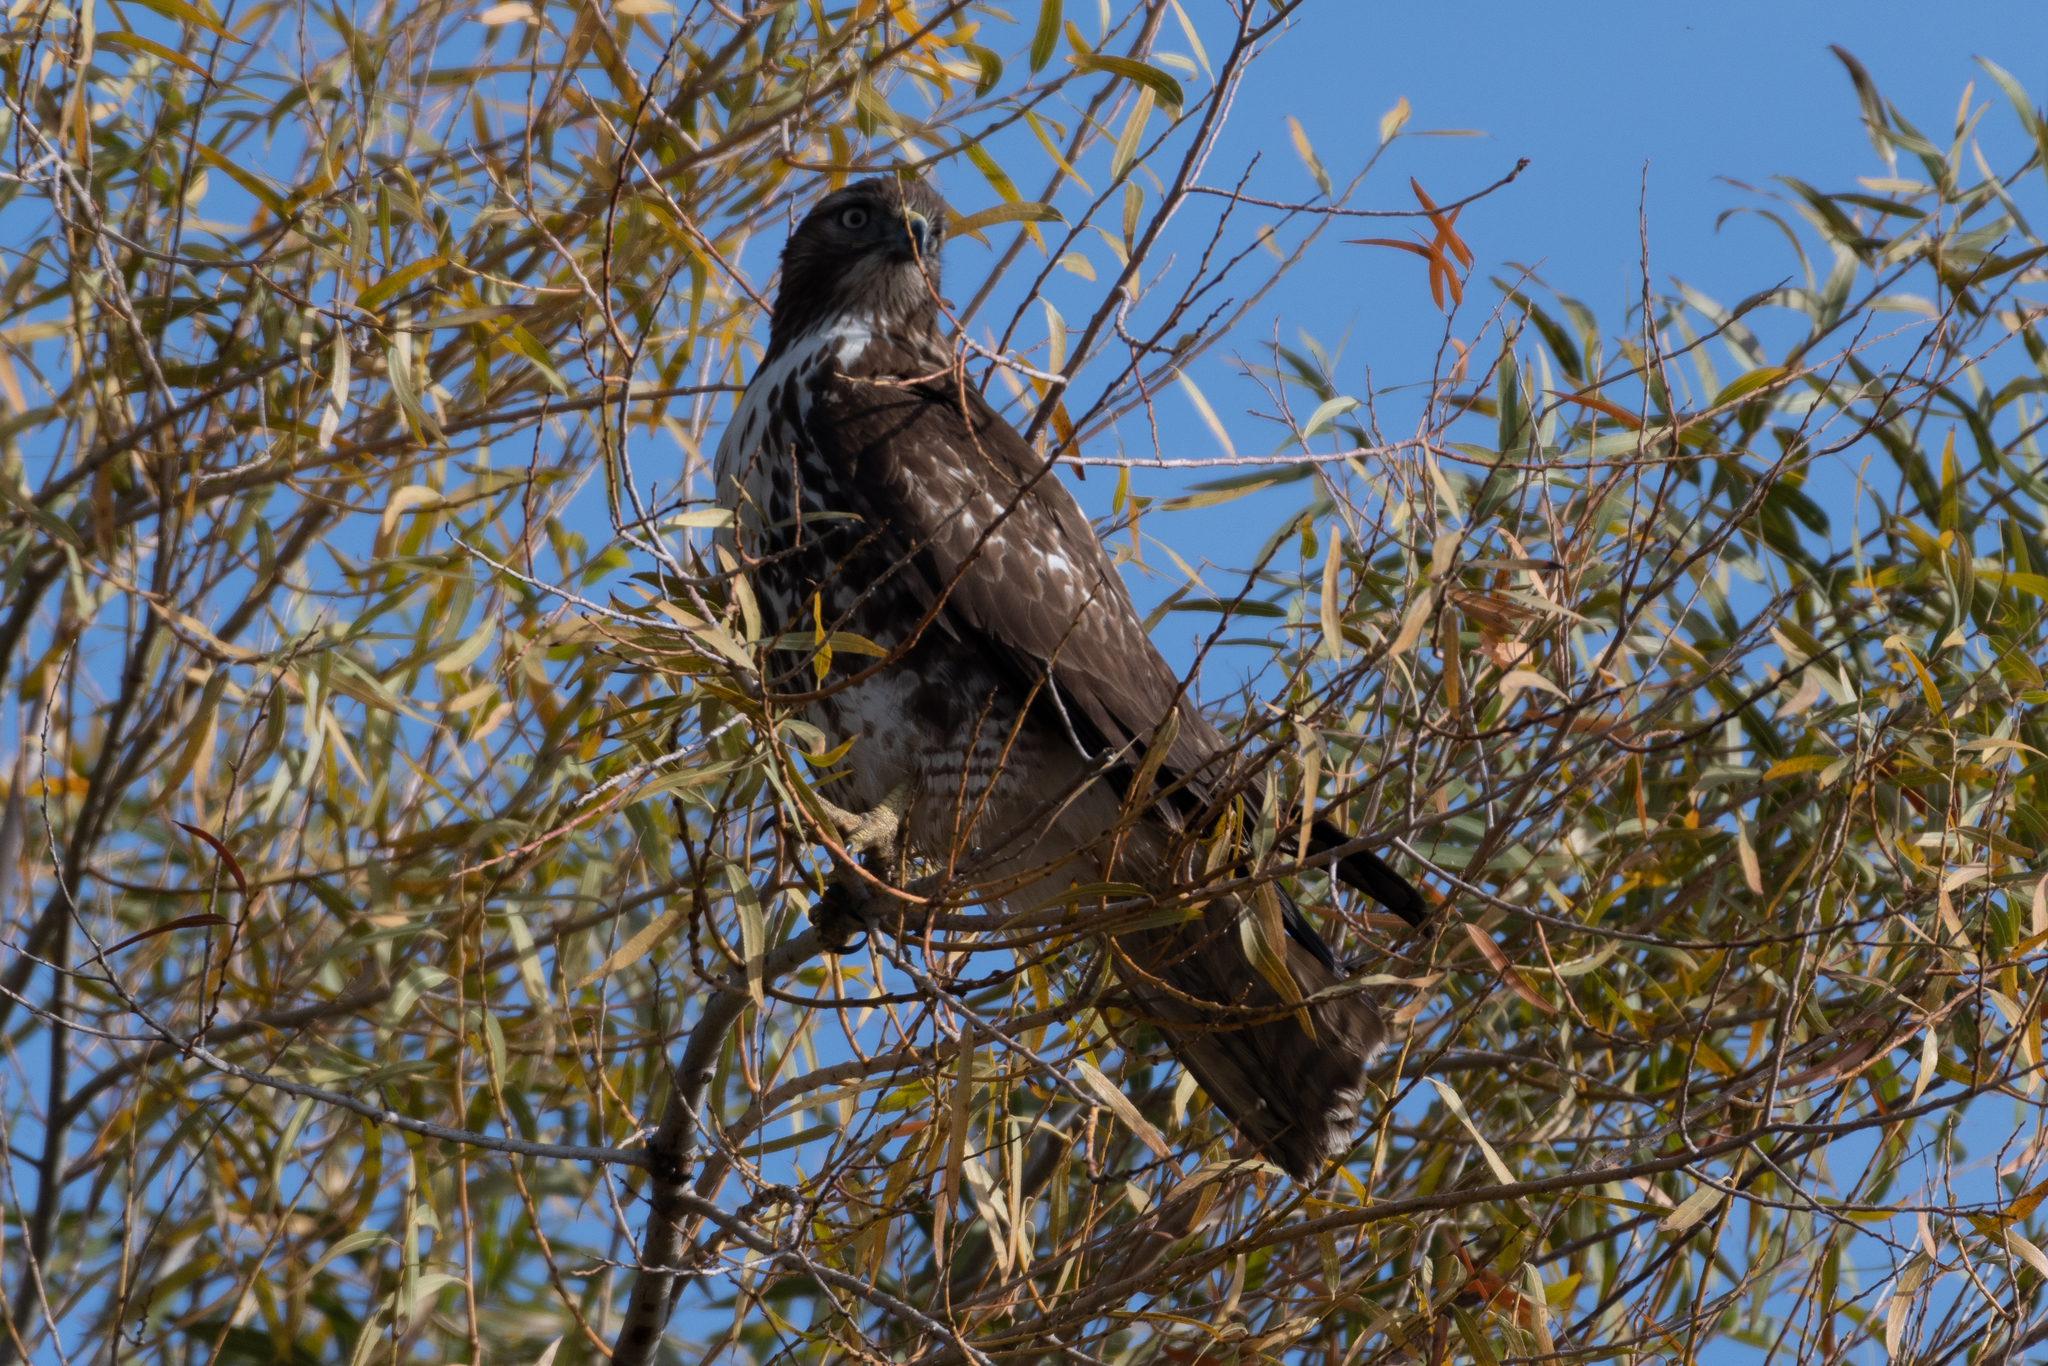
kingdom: Animalia
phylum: Chordata
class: Aves
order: Accipitriformes
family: Accipitridae
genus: Buteo
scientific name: Buteo jamaicensis
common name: Red-tailed hawk
